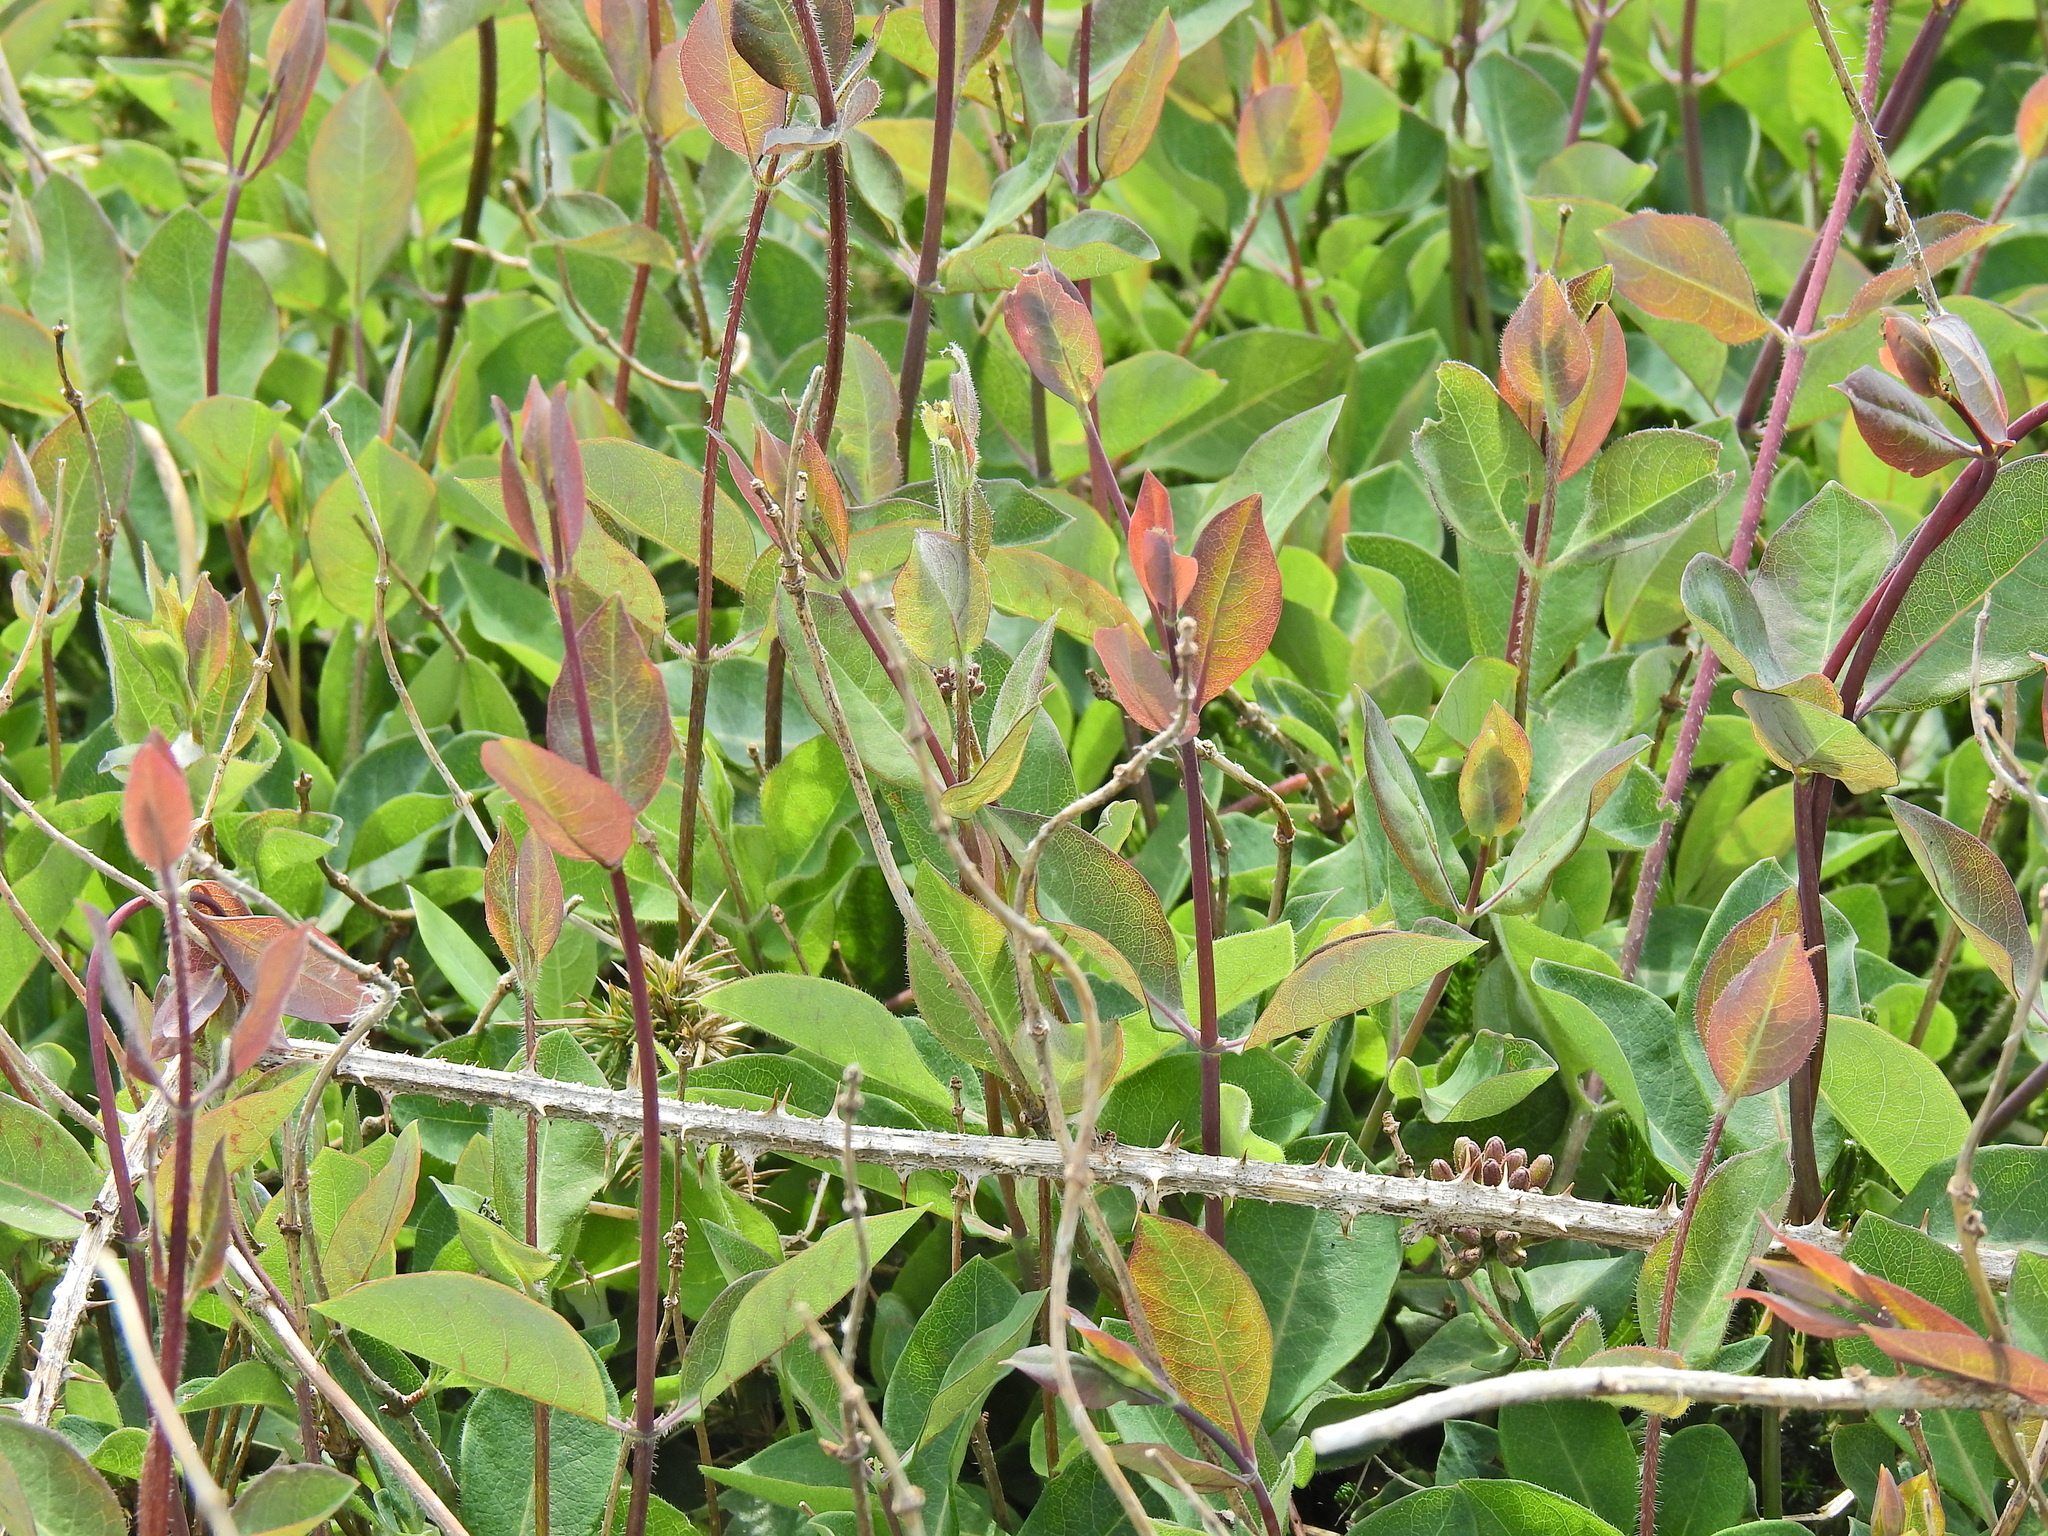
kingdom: Plantae
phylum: Tracheophyta
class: Magnoliopsida
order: Dipsacales
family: Caprifoliaceae
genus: Lonicera
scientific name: Lonicera periclymenum
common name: European honeysuckle
